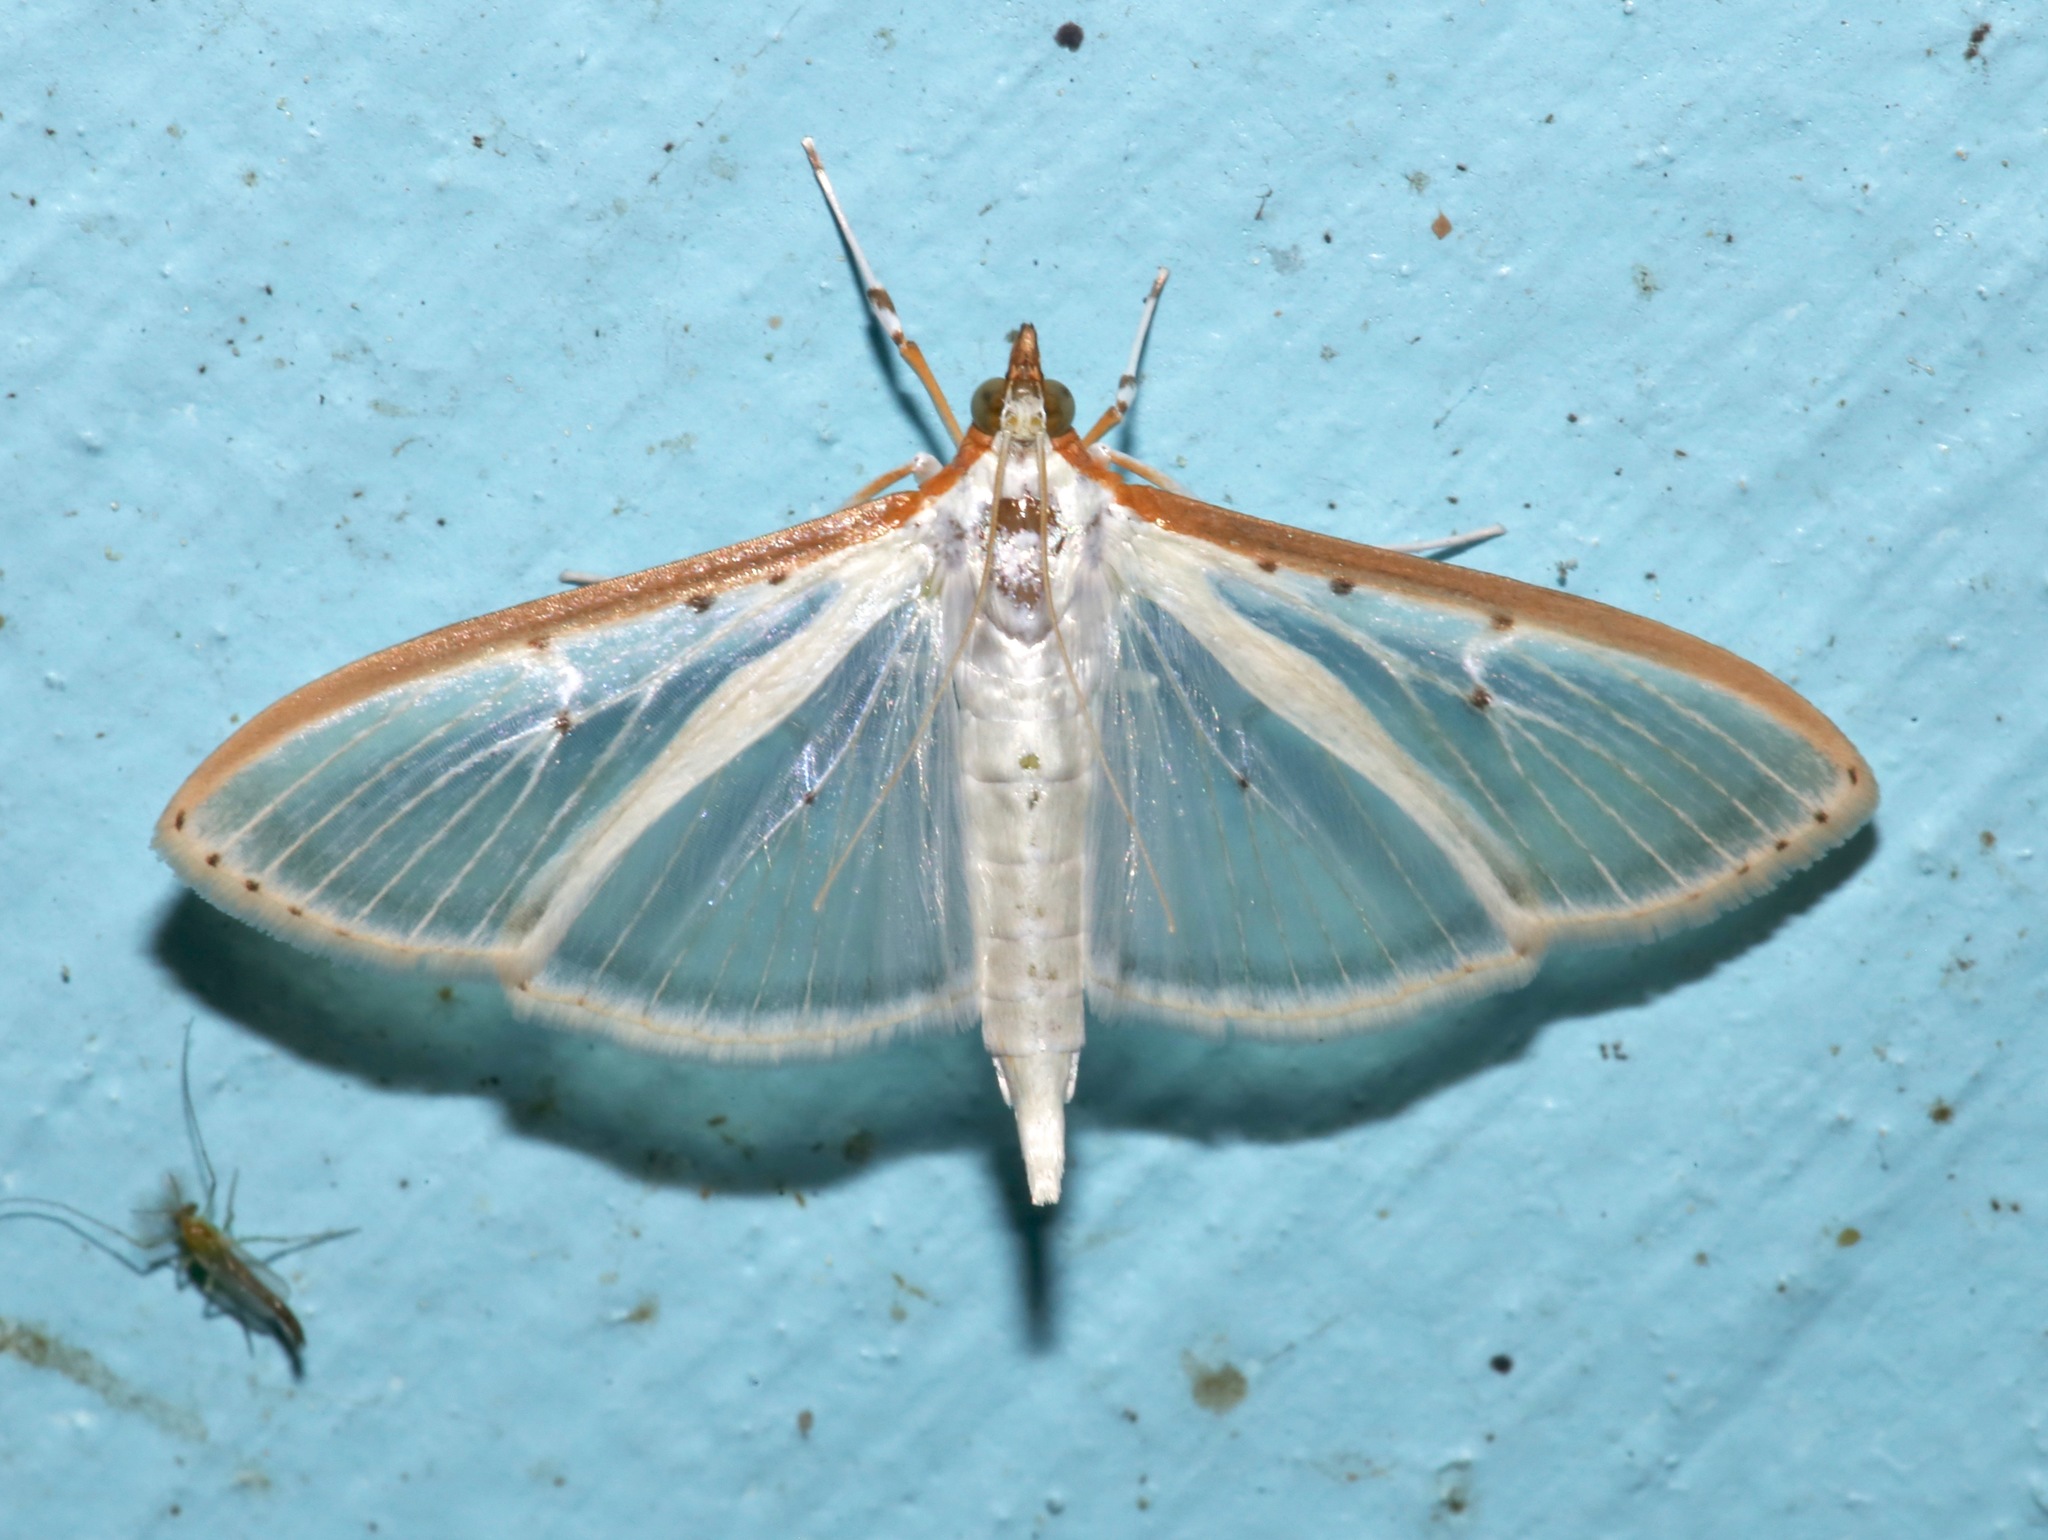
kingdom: Animalia
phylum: Arthropoda
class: Insecta
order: Lepidoptera
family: Crambidae
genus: Palpita
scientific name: Palpita quadristigmalis
